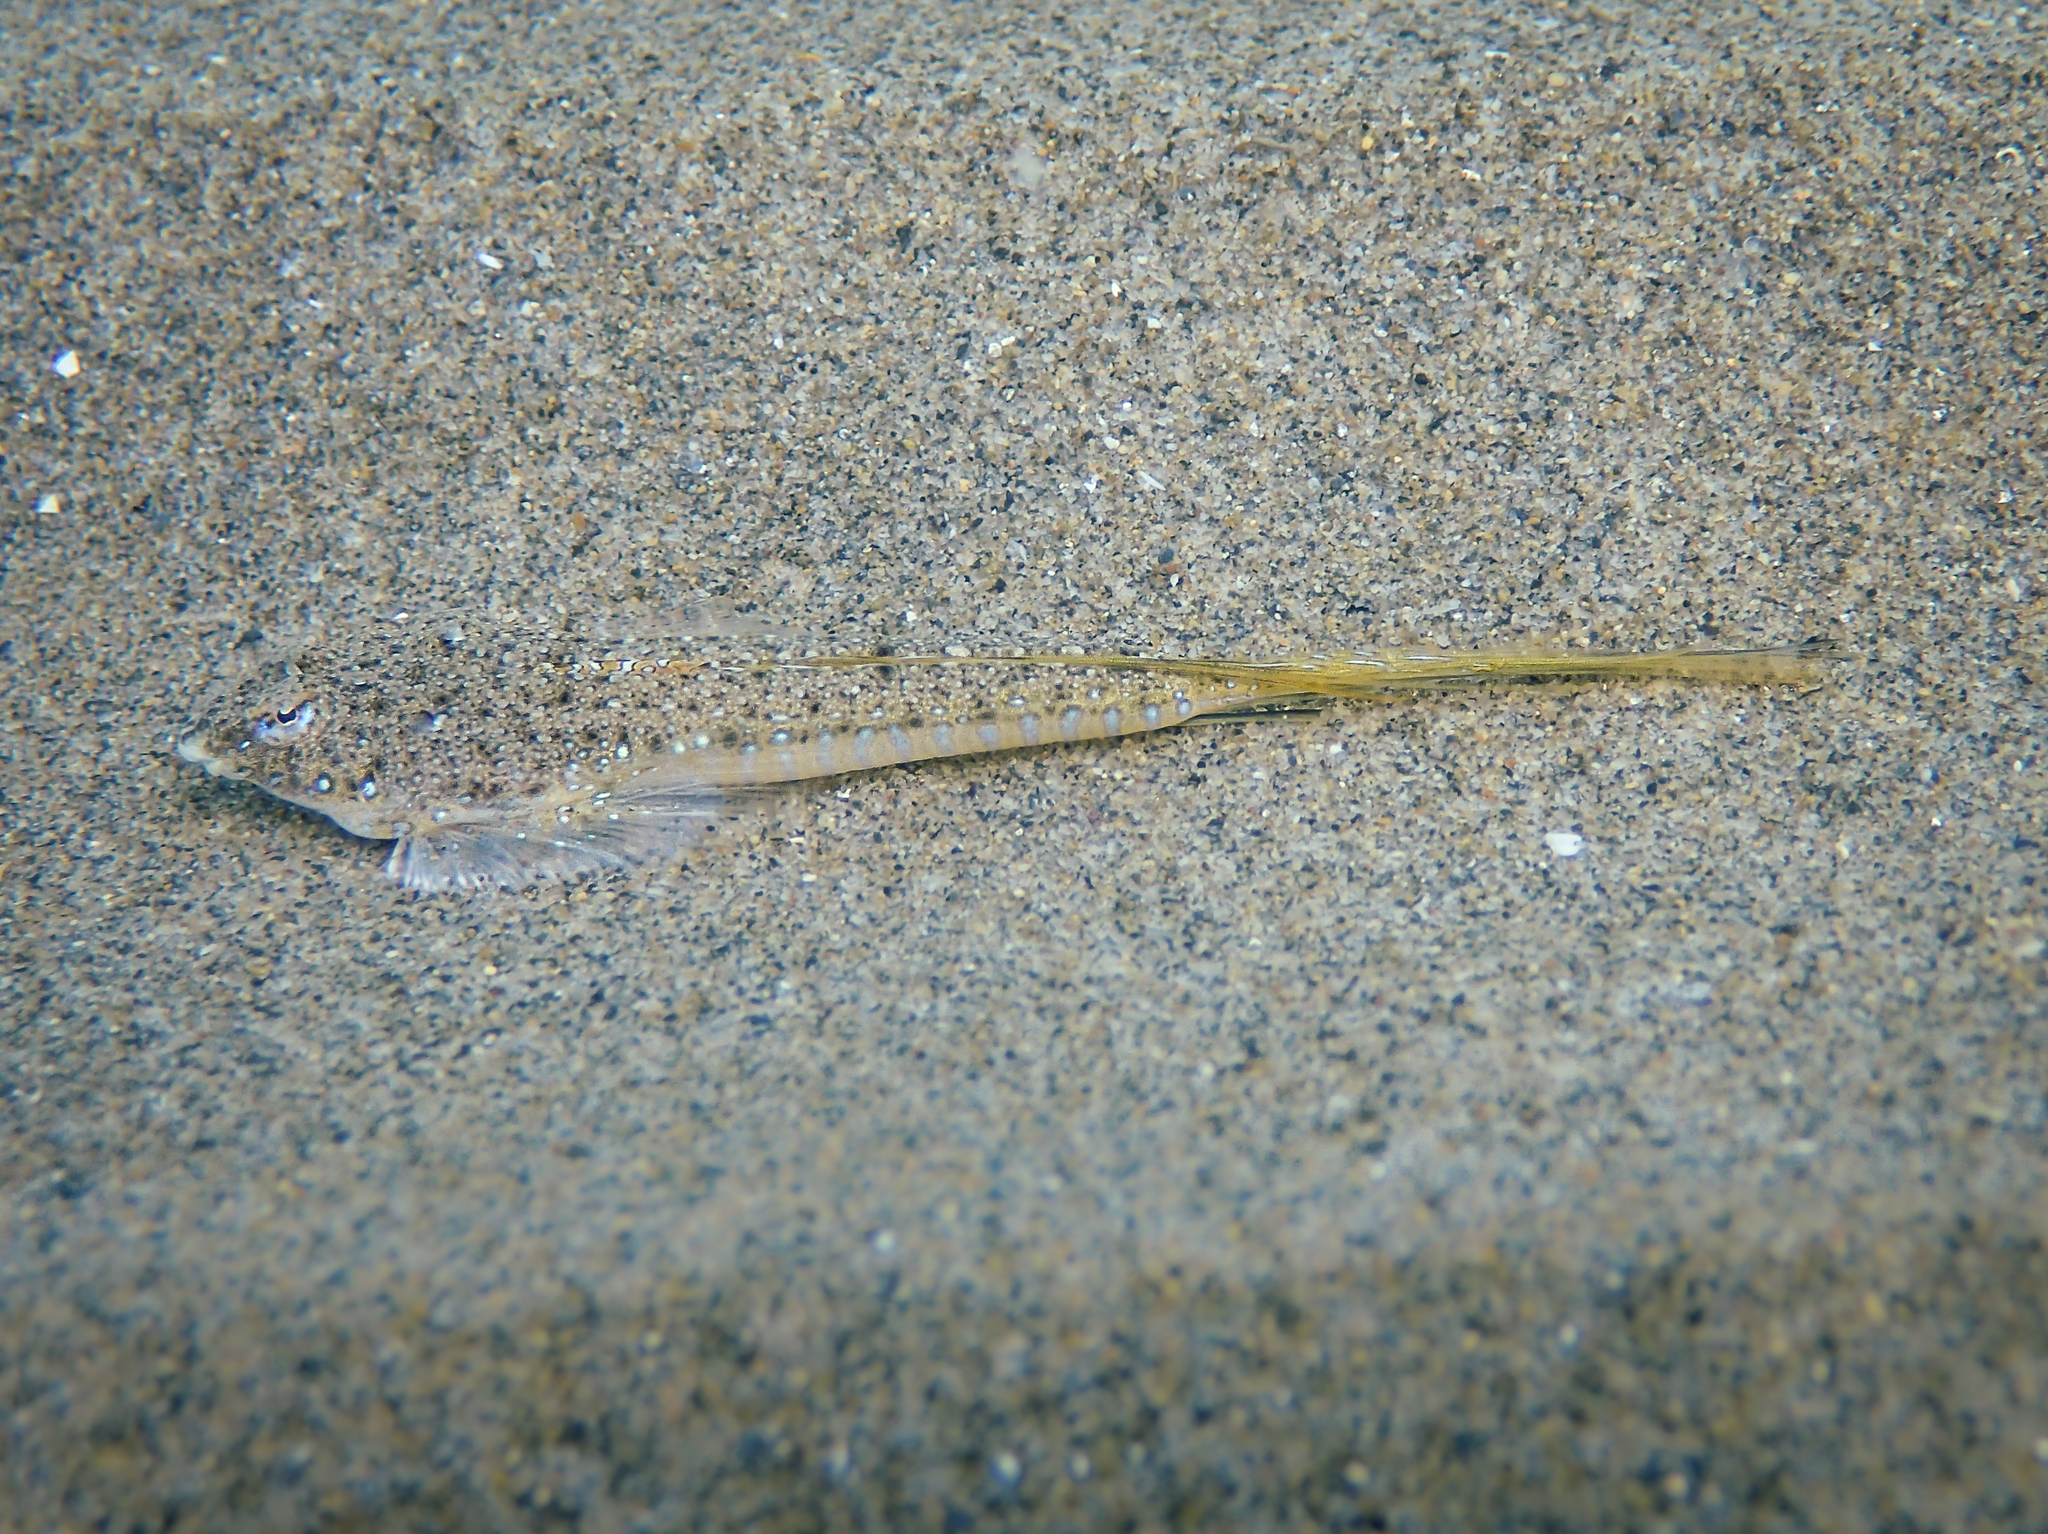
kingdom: Animalia
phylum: Chordata
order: Perciformes
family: Callionymidae
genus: Callionymus
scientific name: Callionymus pusillus
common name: Sailfin dragonet
